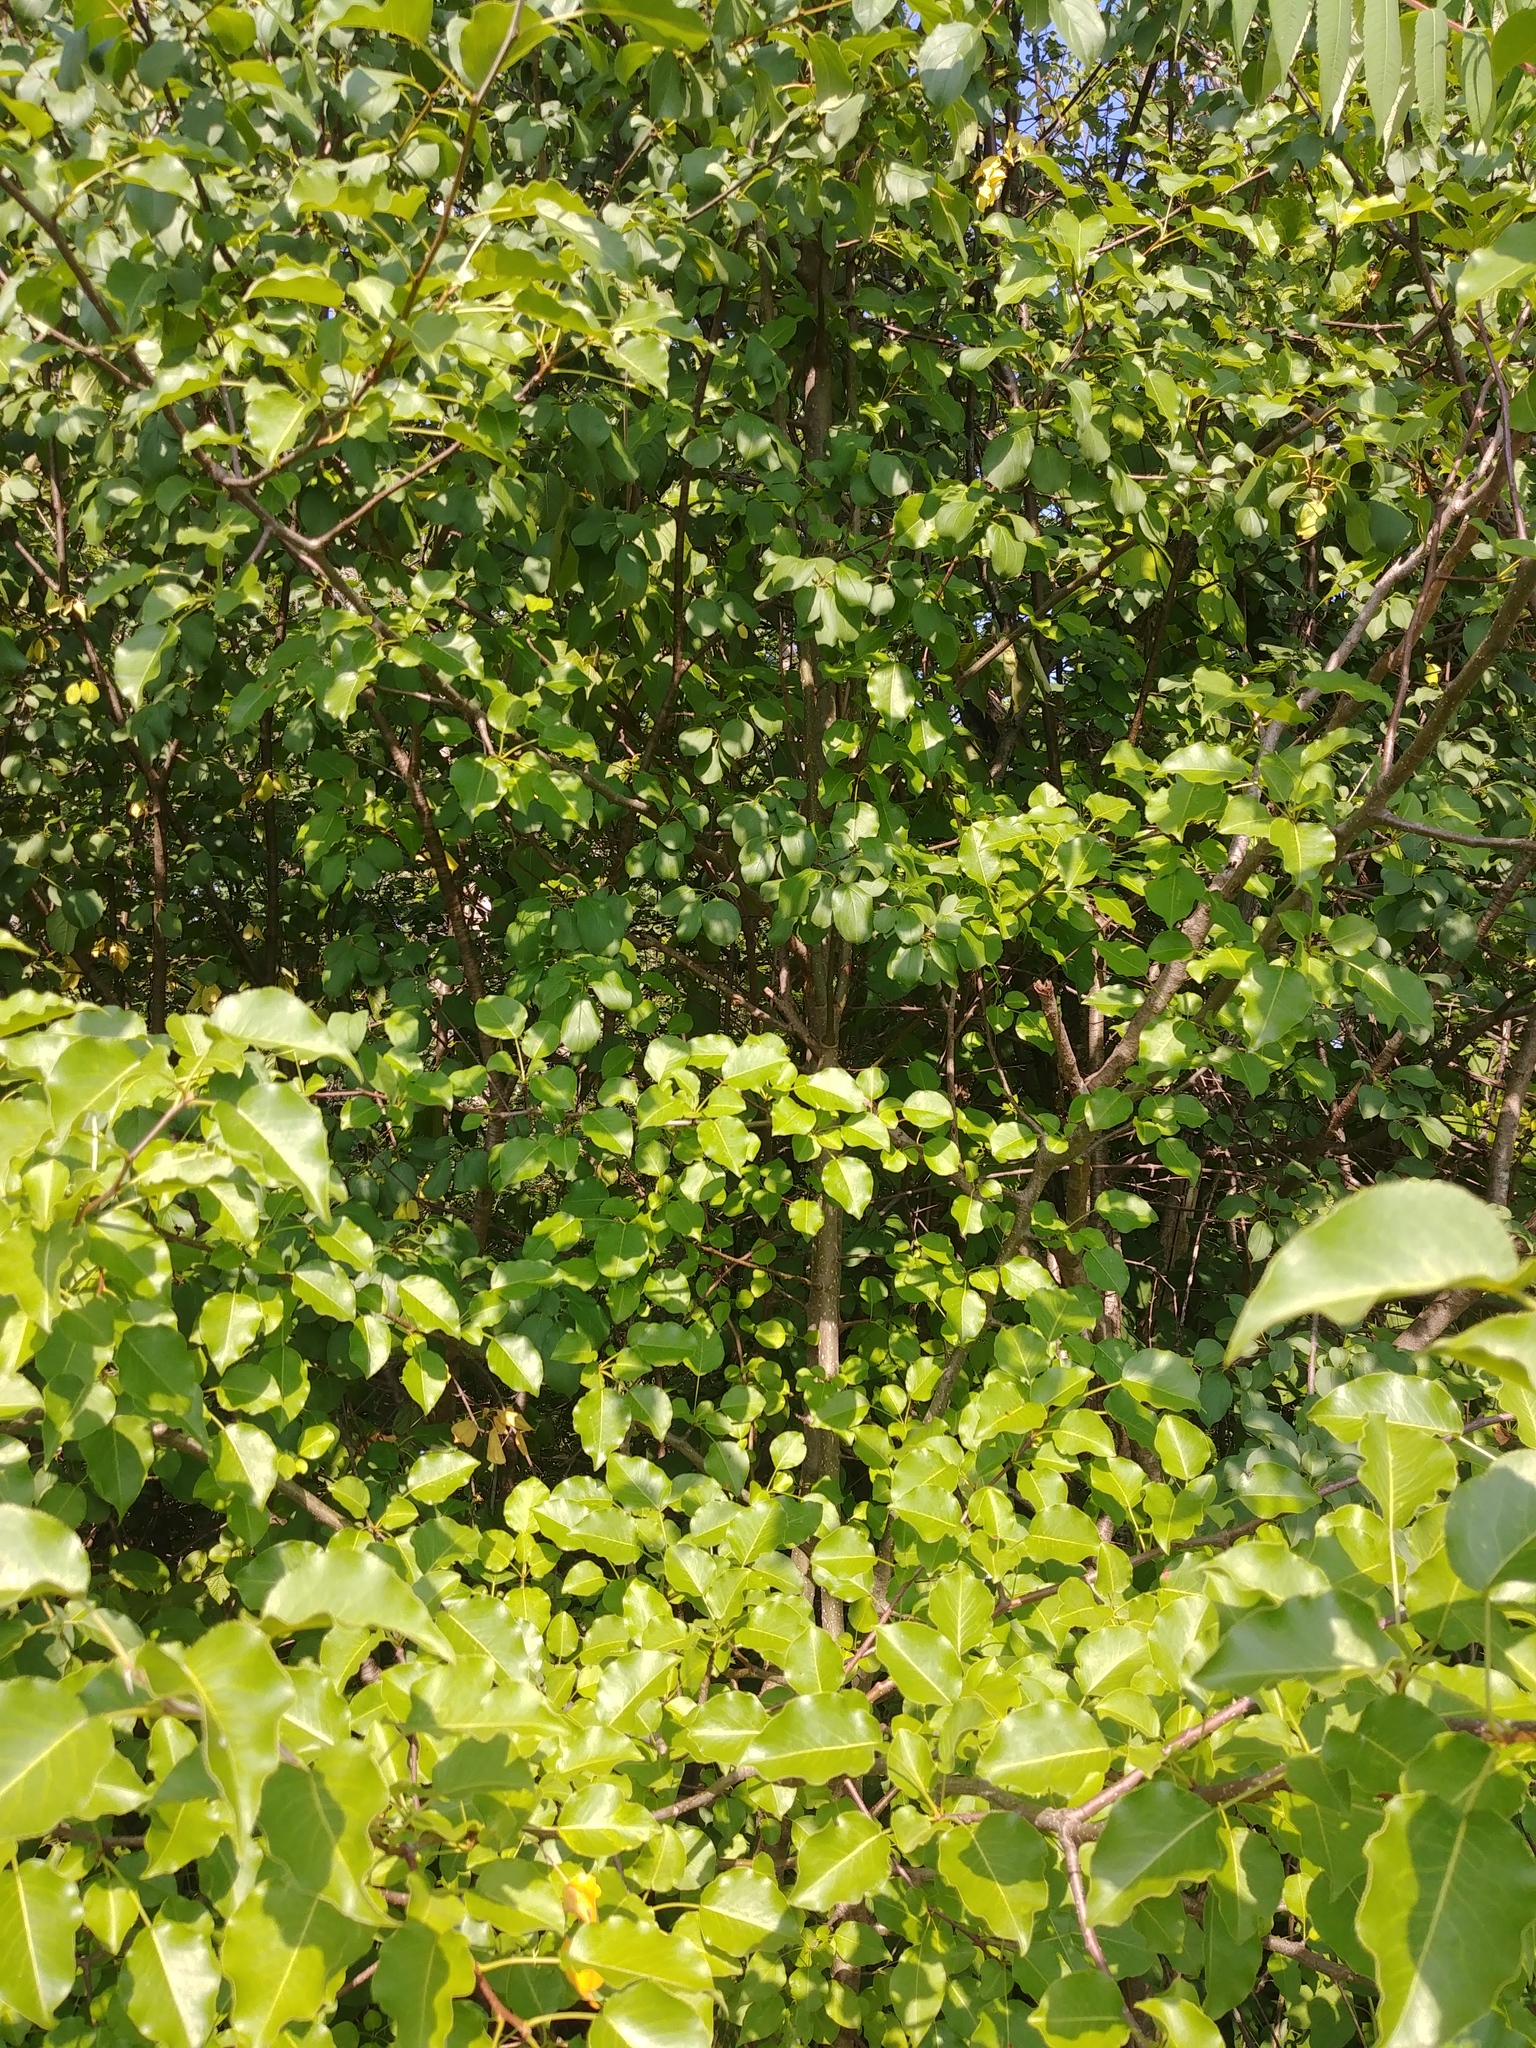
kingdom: Plantae
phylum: Tracheophyta
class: Magnoliopsida
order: Rosales
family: Rosaceae
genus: Pyrus
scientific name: Pyrus calleryana
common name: Callery pear
